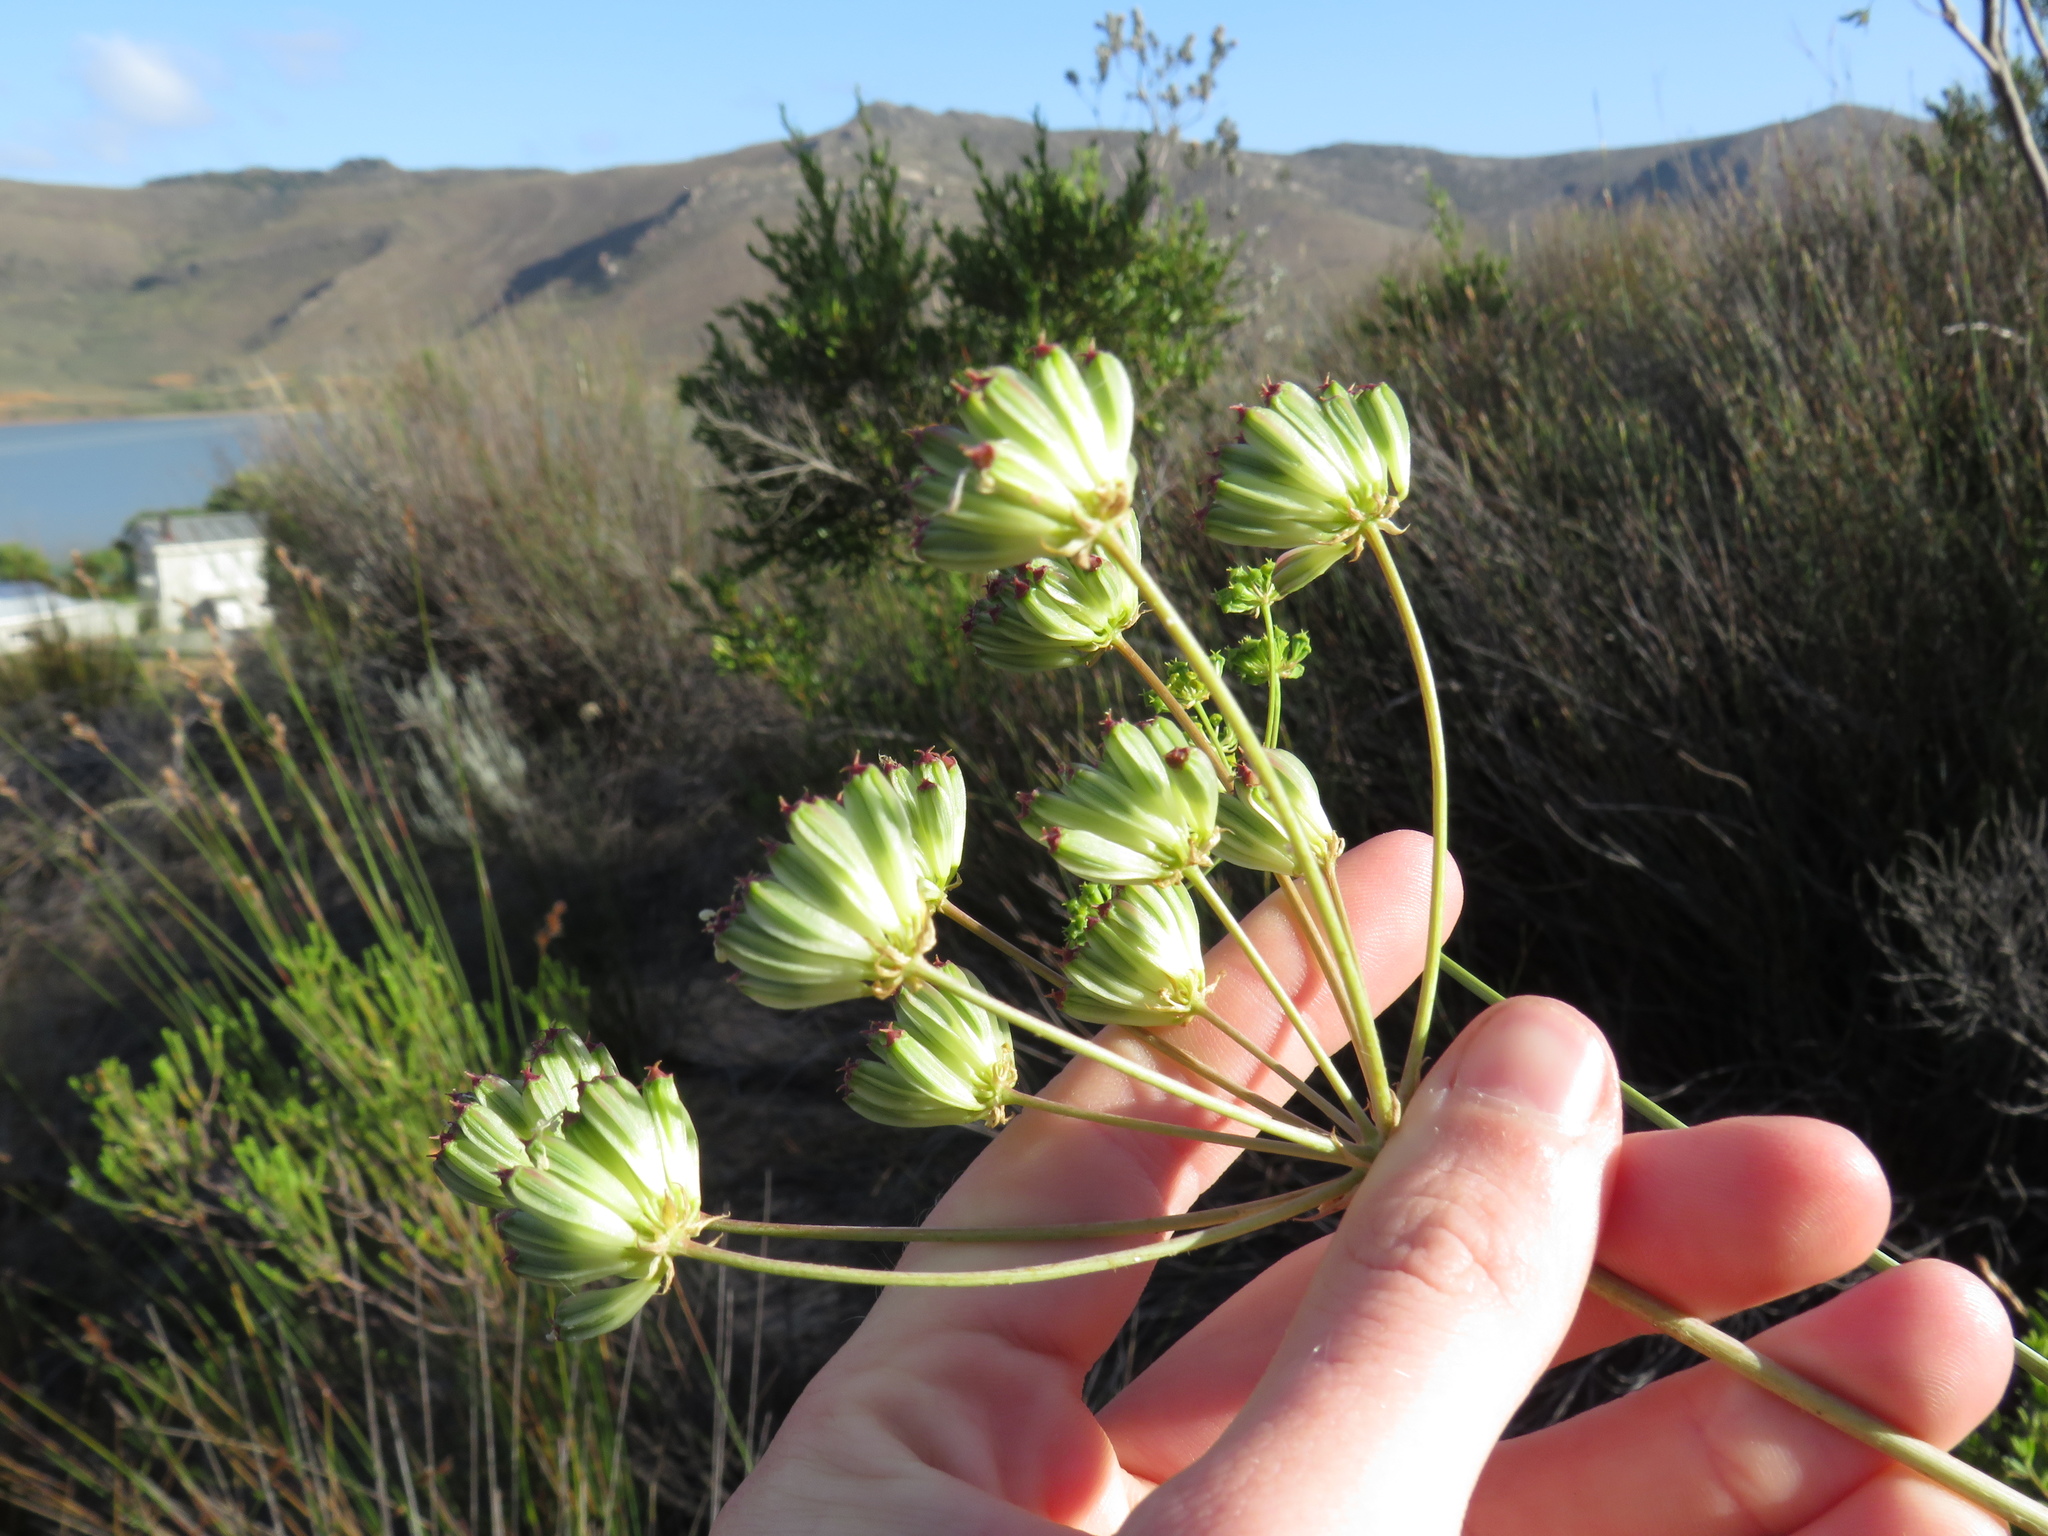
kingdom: Plantae
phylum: Tracheophyta
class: Magnoliopsida
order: Apiales
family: Apiaceae
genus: Annesorhiza
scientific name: Annesorhiza macrocarpa
